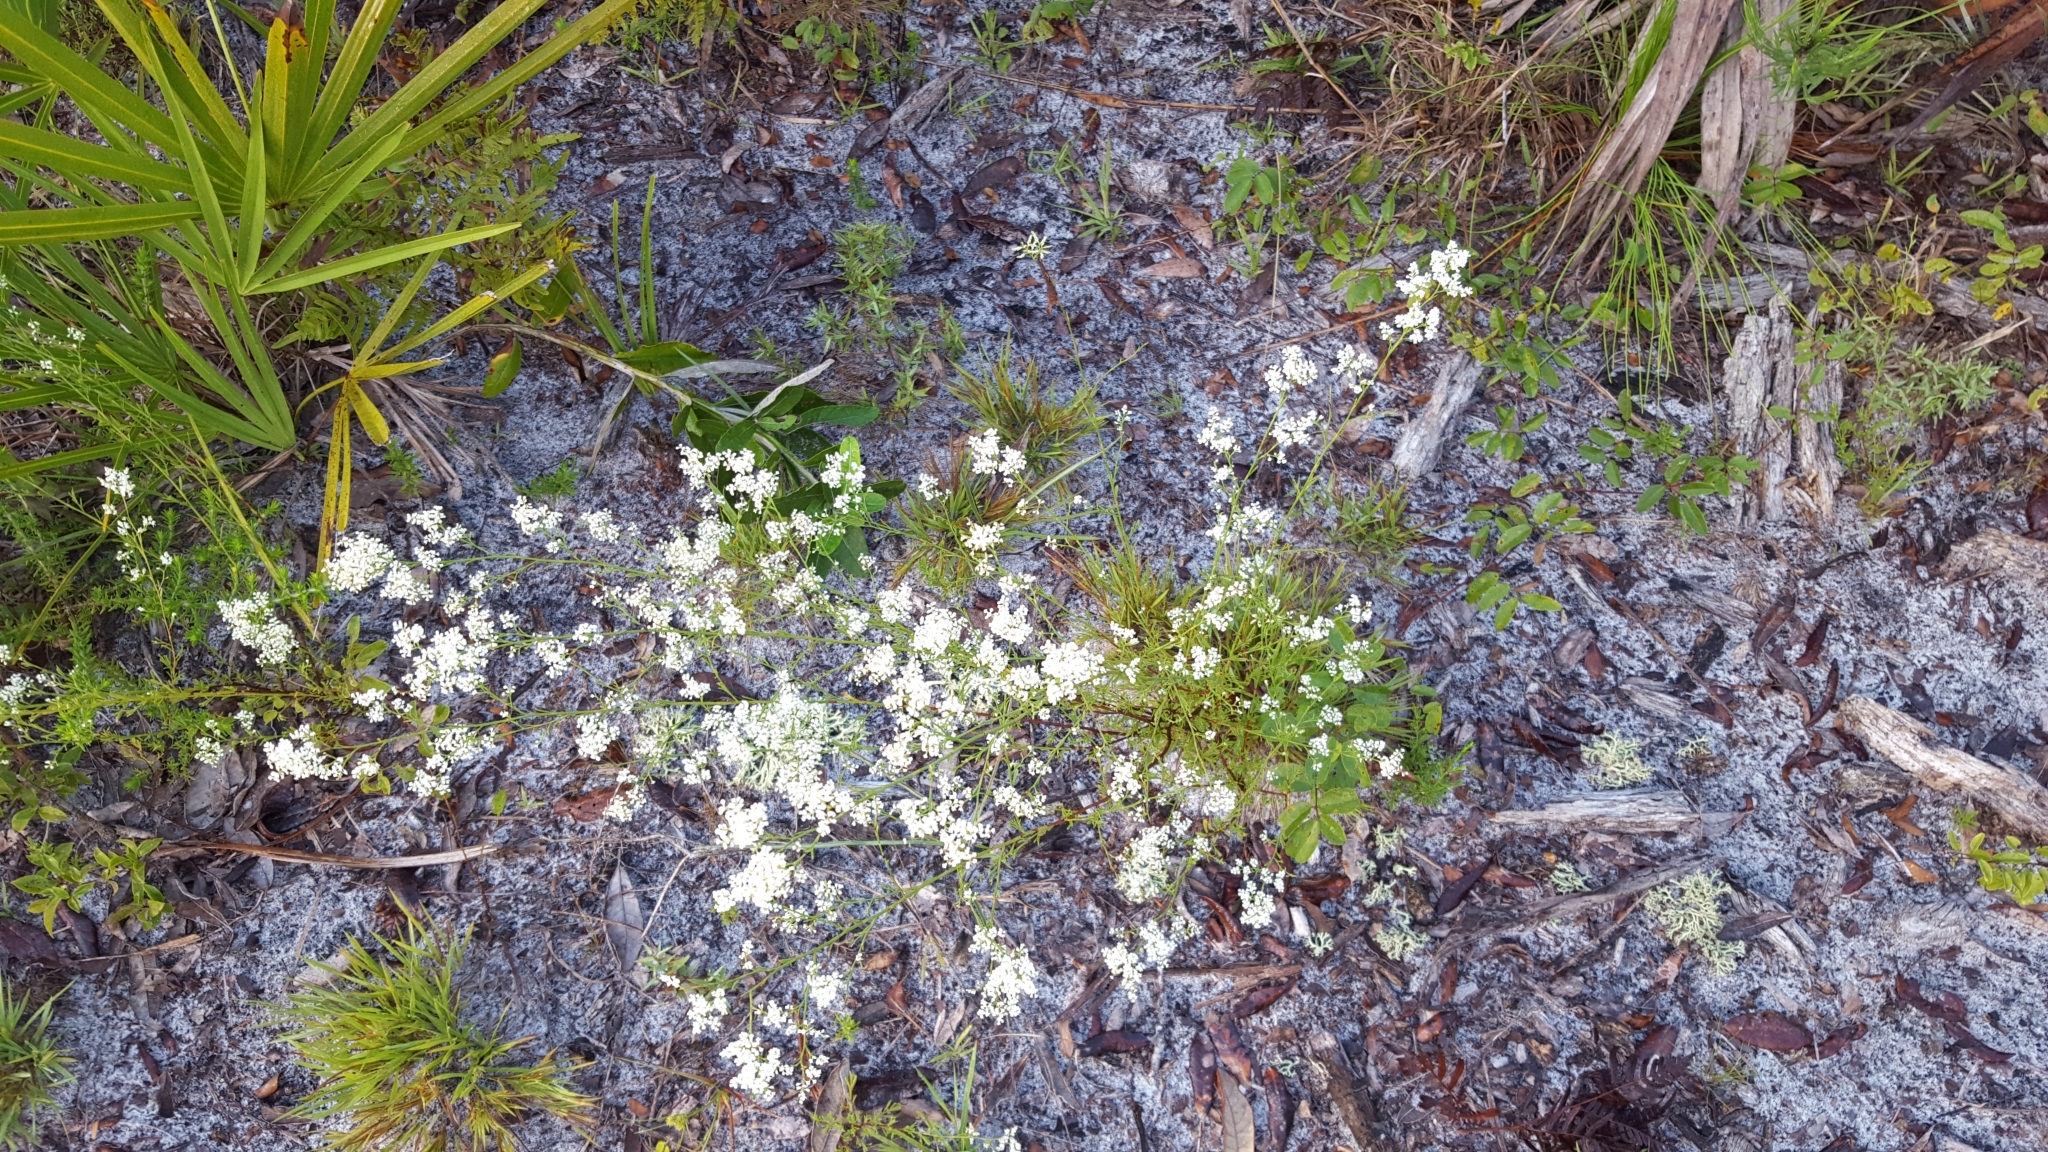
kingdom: Plantae
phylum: Tracheophyta
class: Magnoliopsida
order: Caryophyllales
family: Polygonaceae
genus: Polygonella
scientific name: Polygonella polygama
